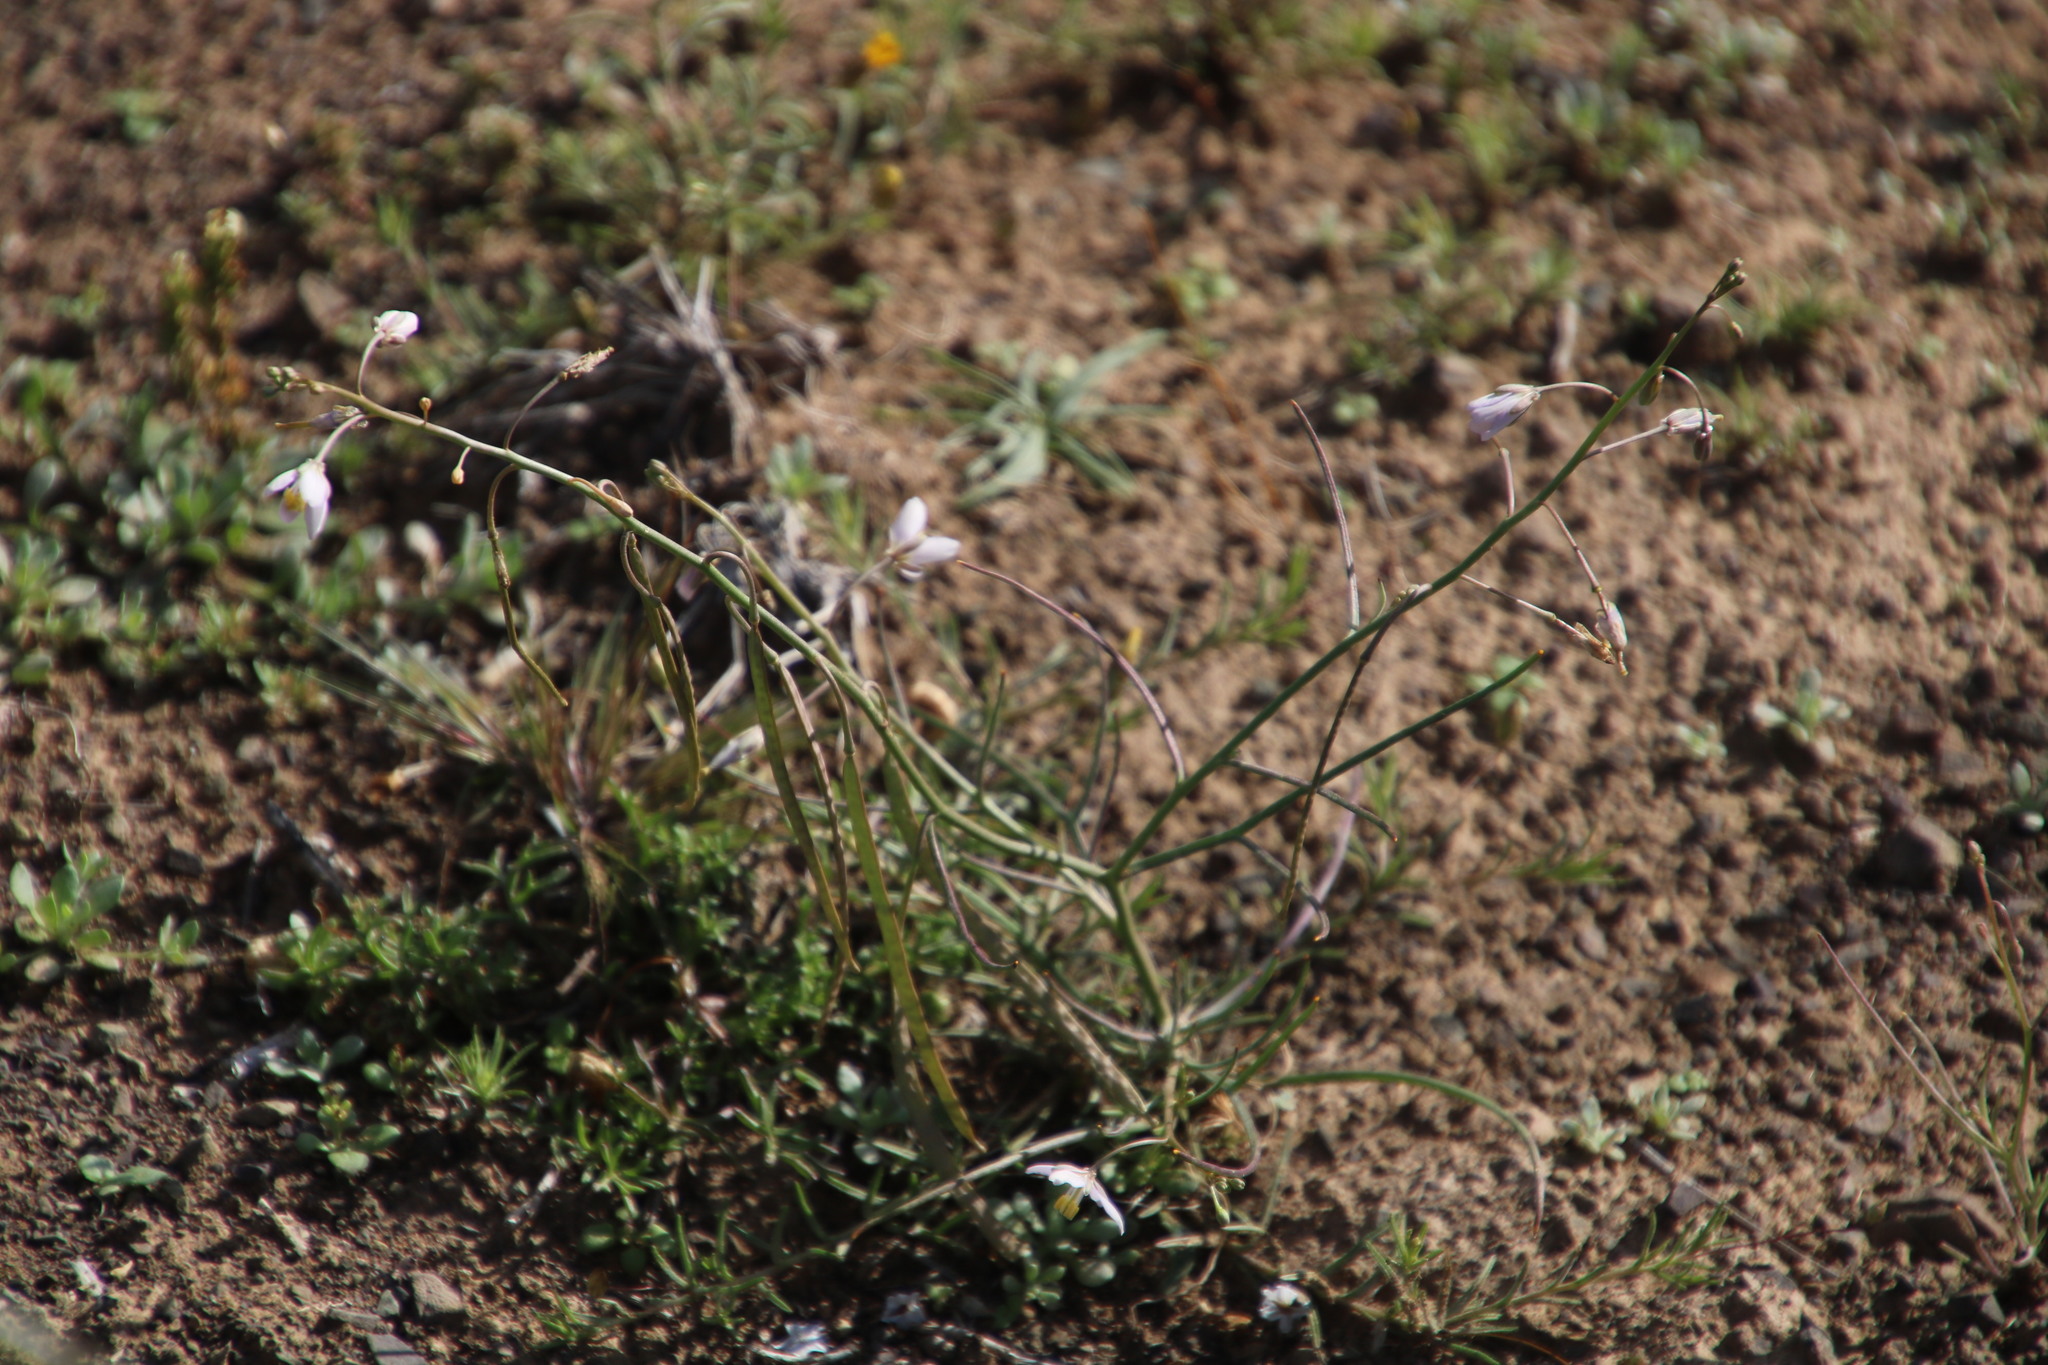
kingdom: Plantae
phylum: Tracheophyta
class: Magnoliopsida
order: Brassicales
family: Brassicaceae
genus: Heliophila
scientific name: Heliophila trifurca
